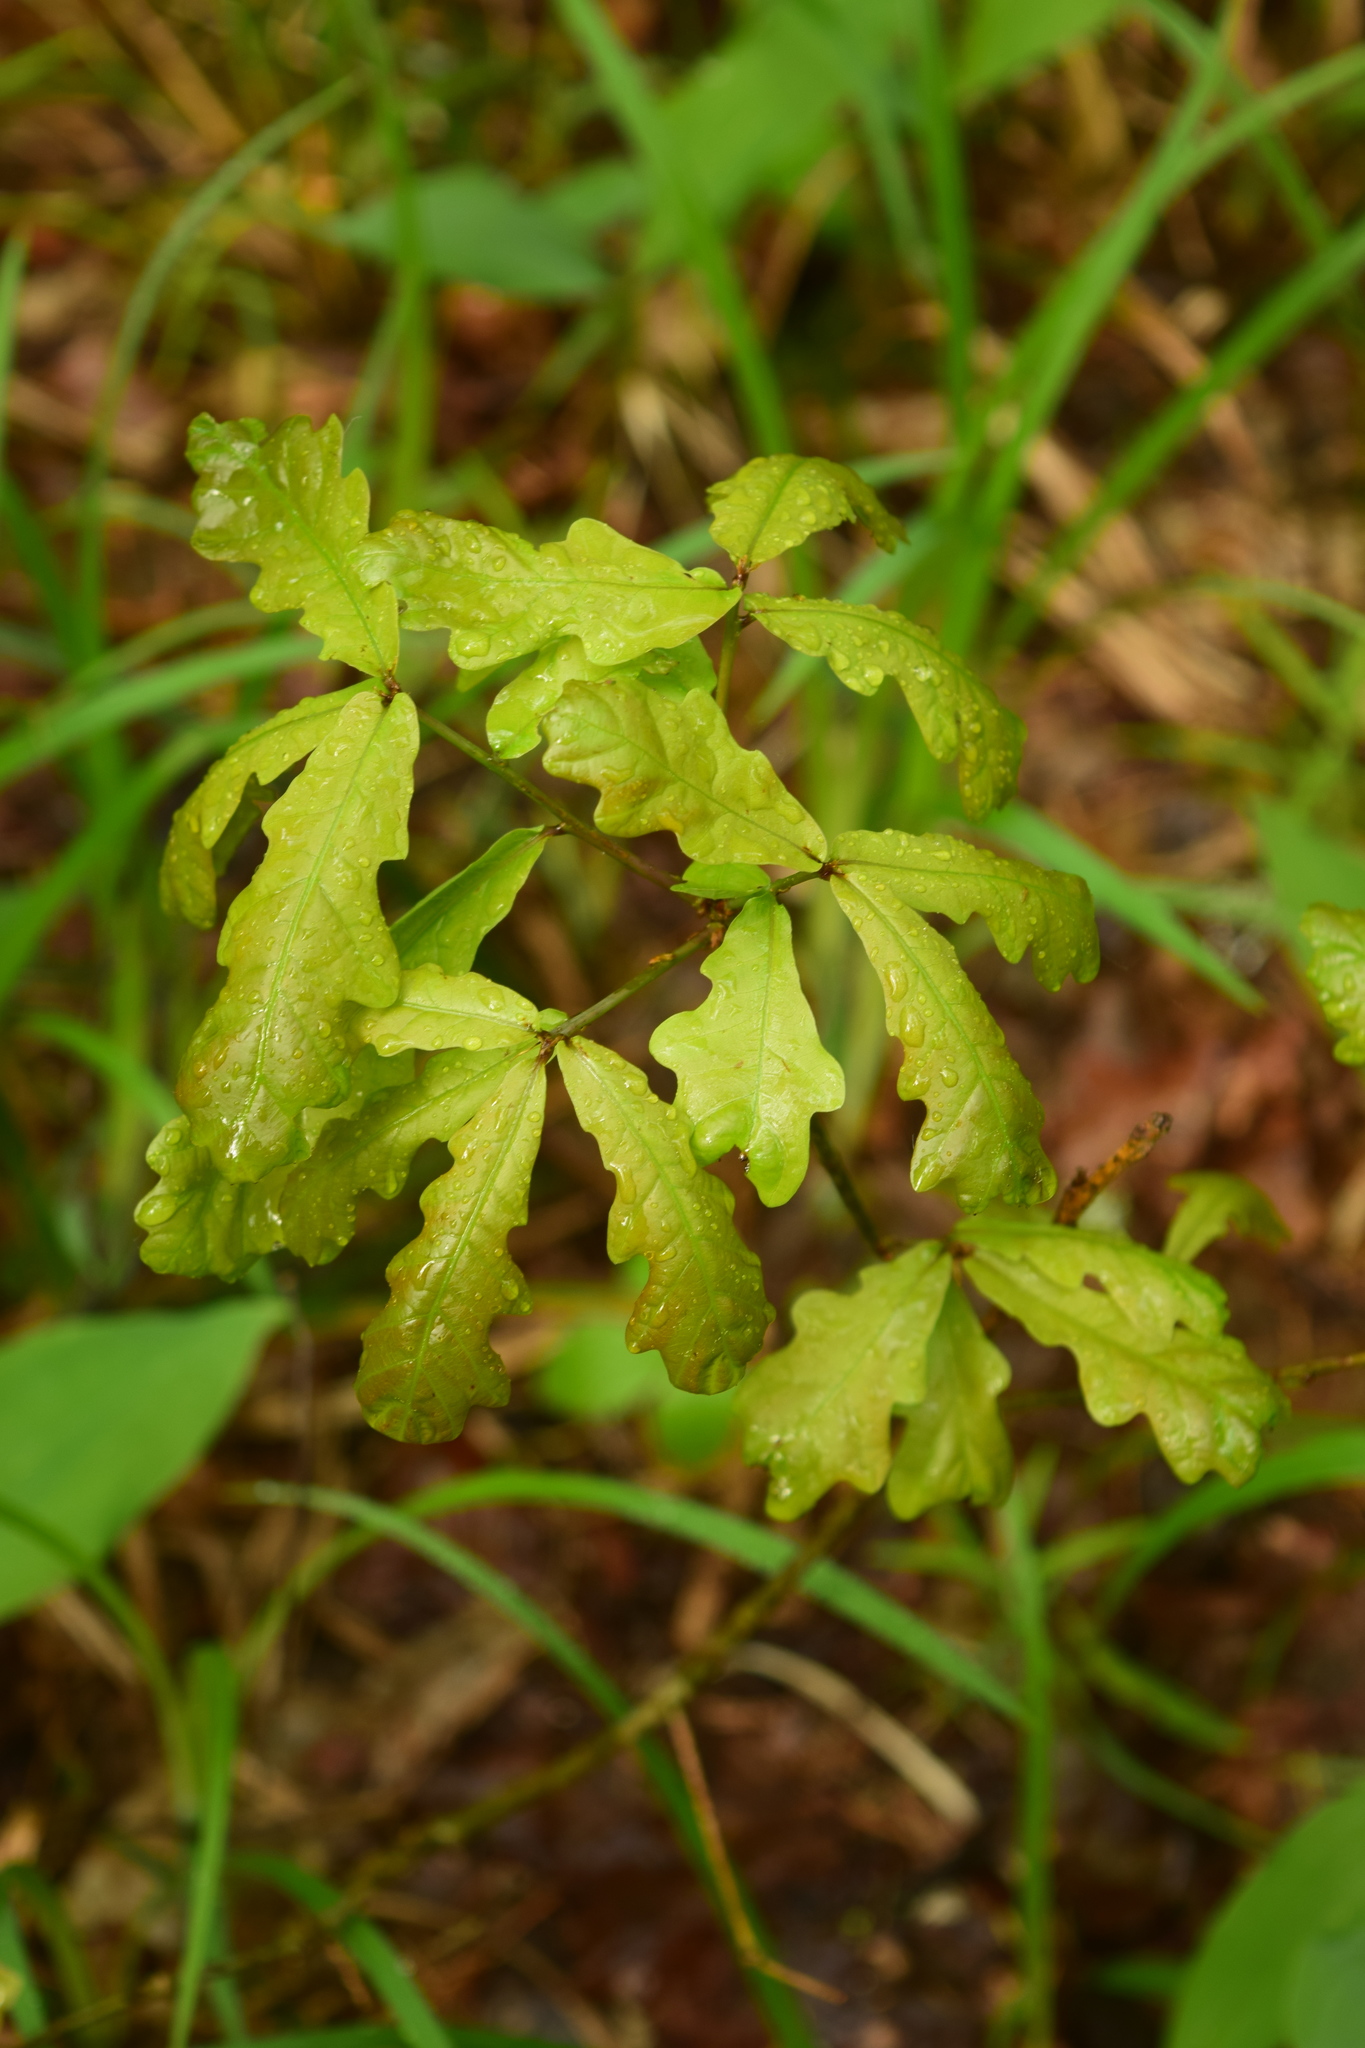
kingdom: Plantae
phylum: Tracheophyta
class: Magnoliopsida
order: Fagales
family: Fagaceae
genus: Quercus
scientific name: Quercus robur
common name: Pedunculate oak
